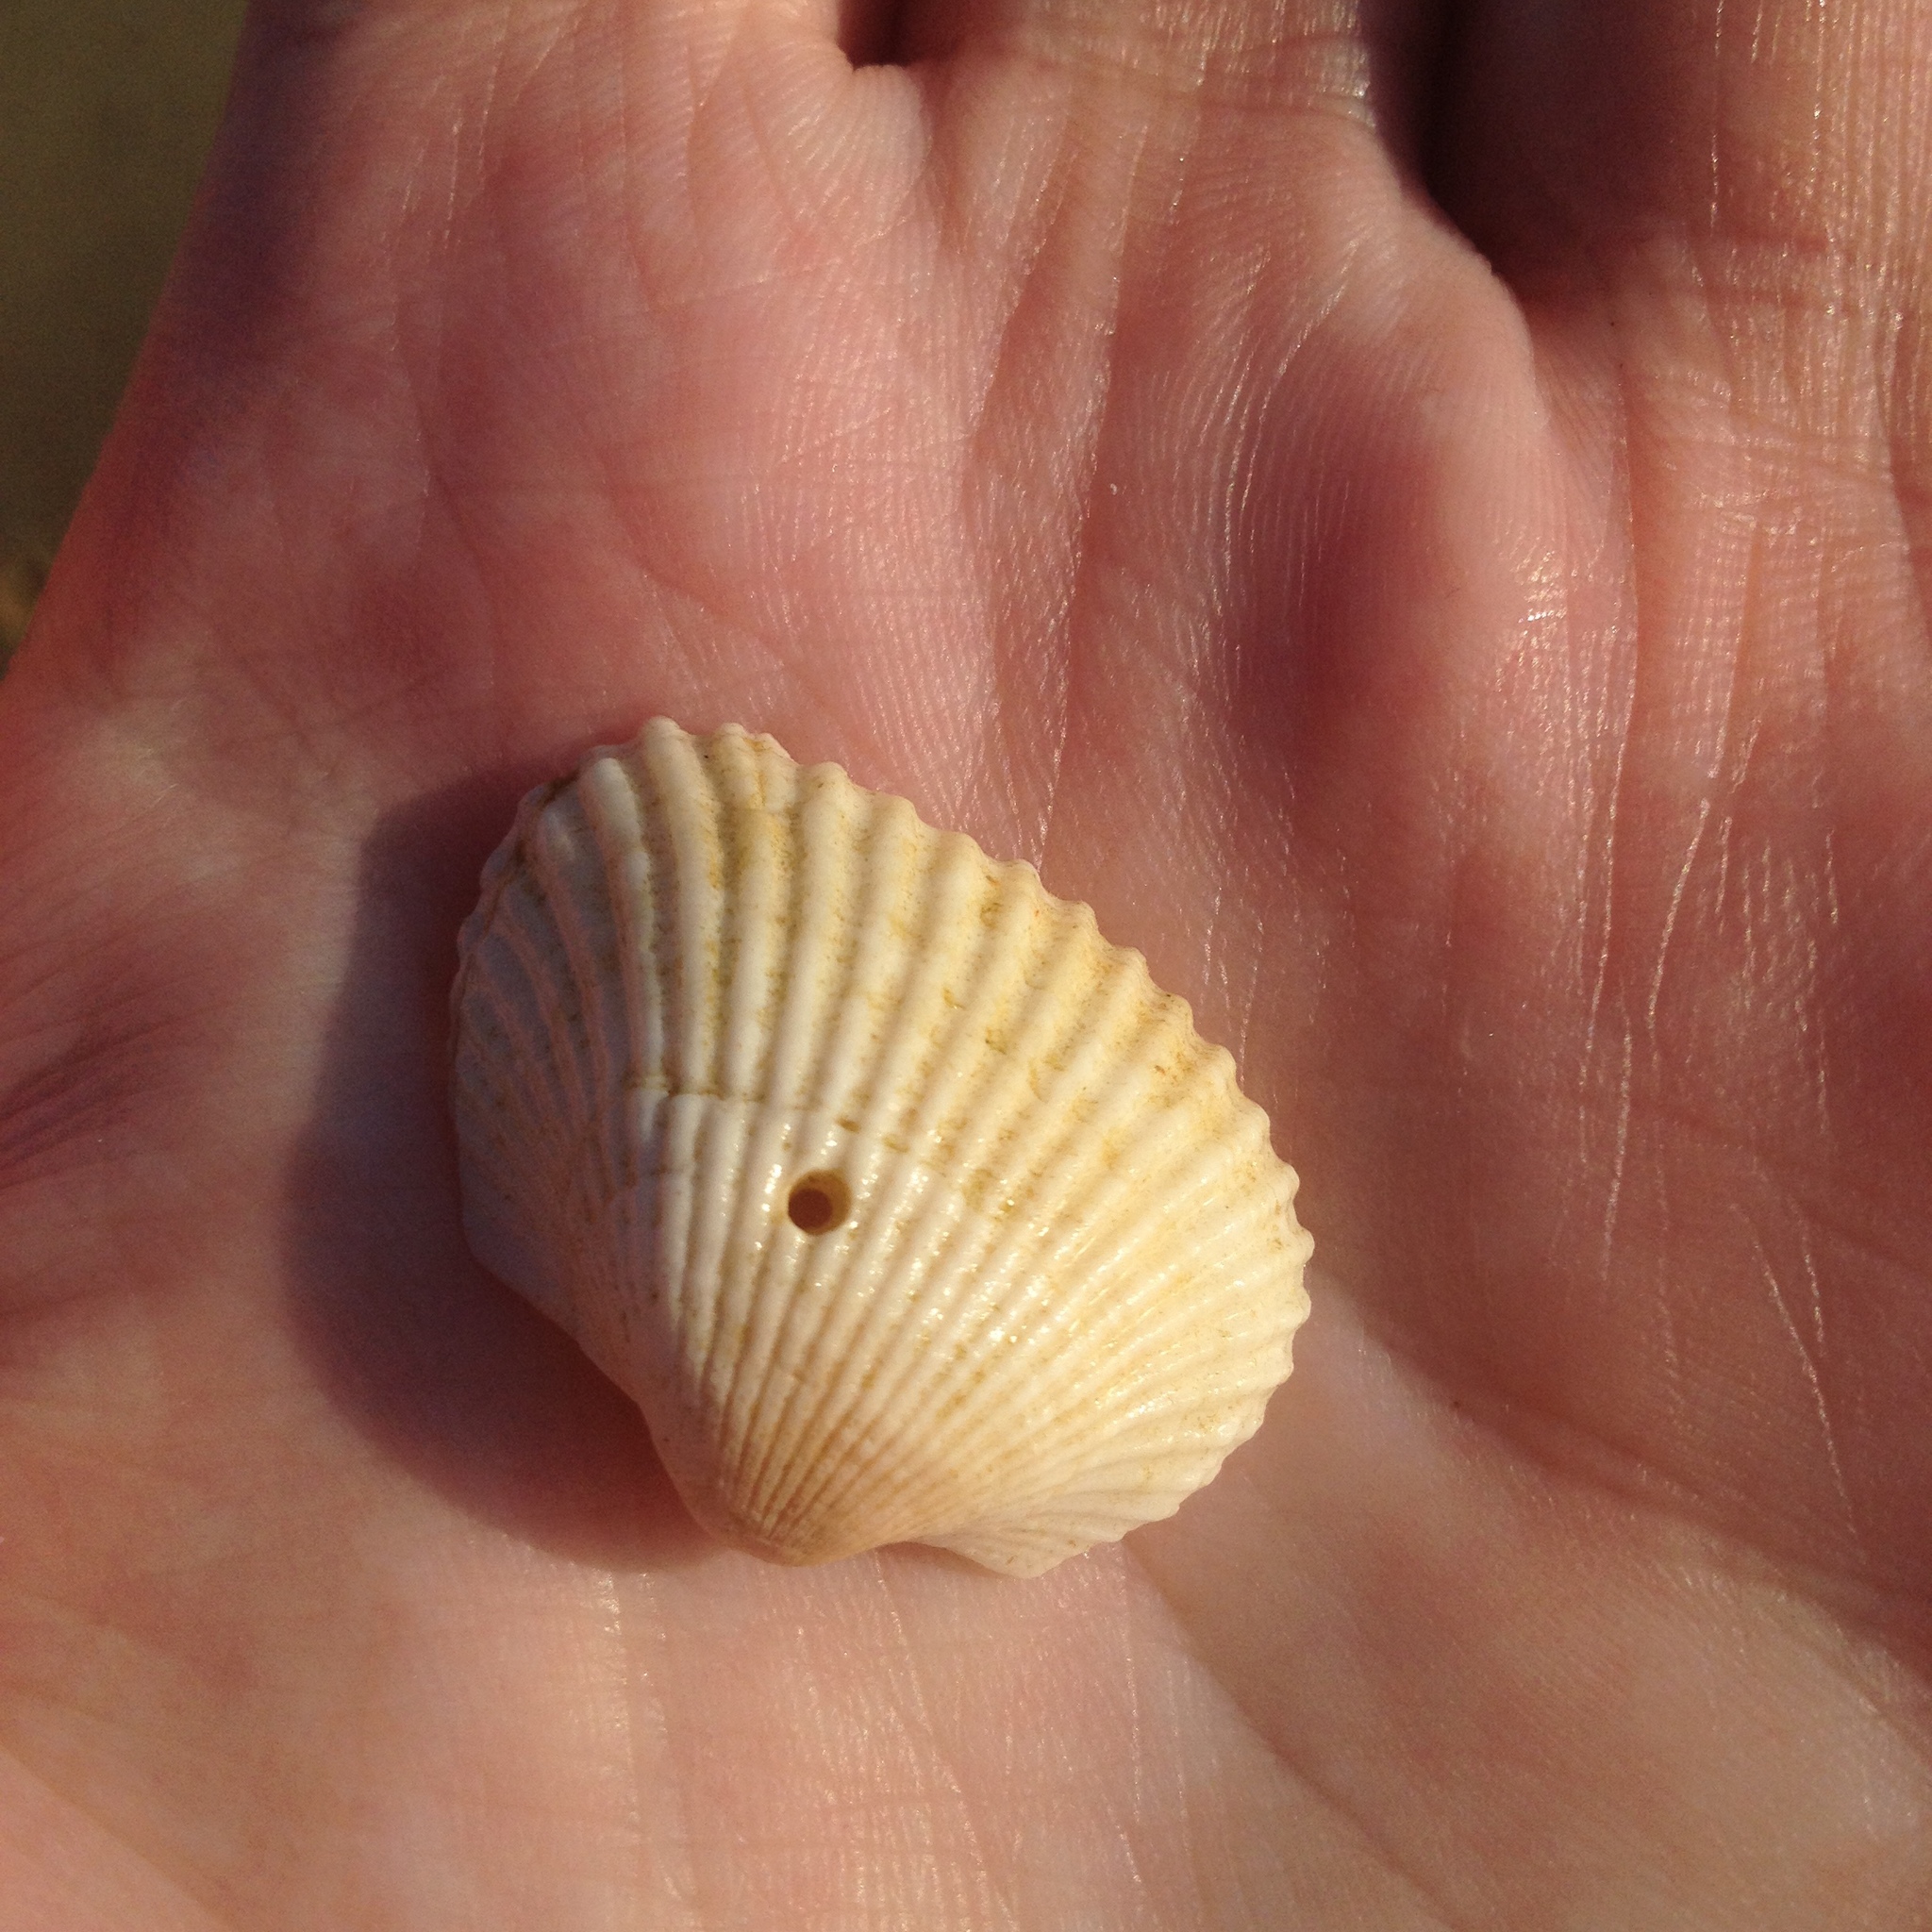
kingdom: Animalia
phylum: Mollusca
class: Bivalvia
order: Arcida
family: Arcidae
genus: Anadara
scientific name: Anadara transversa
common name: Transverse ark
